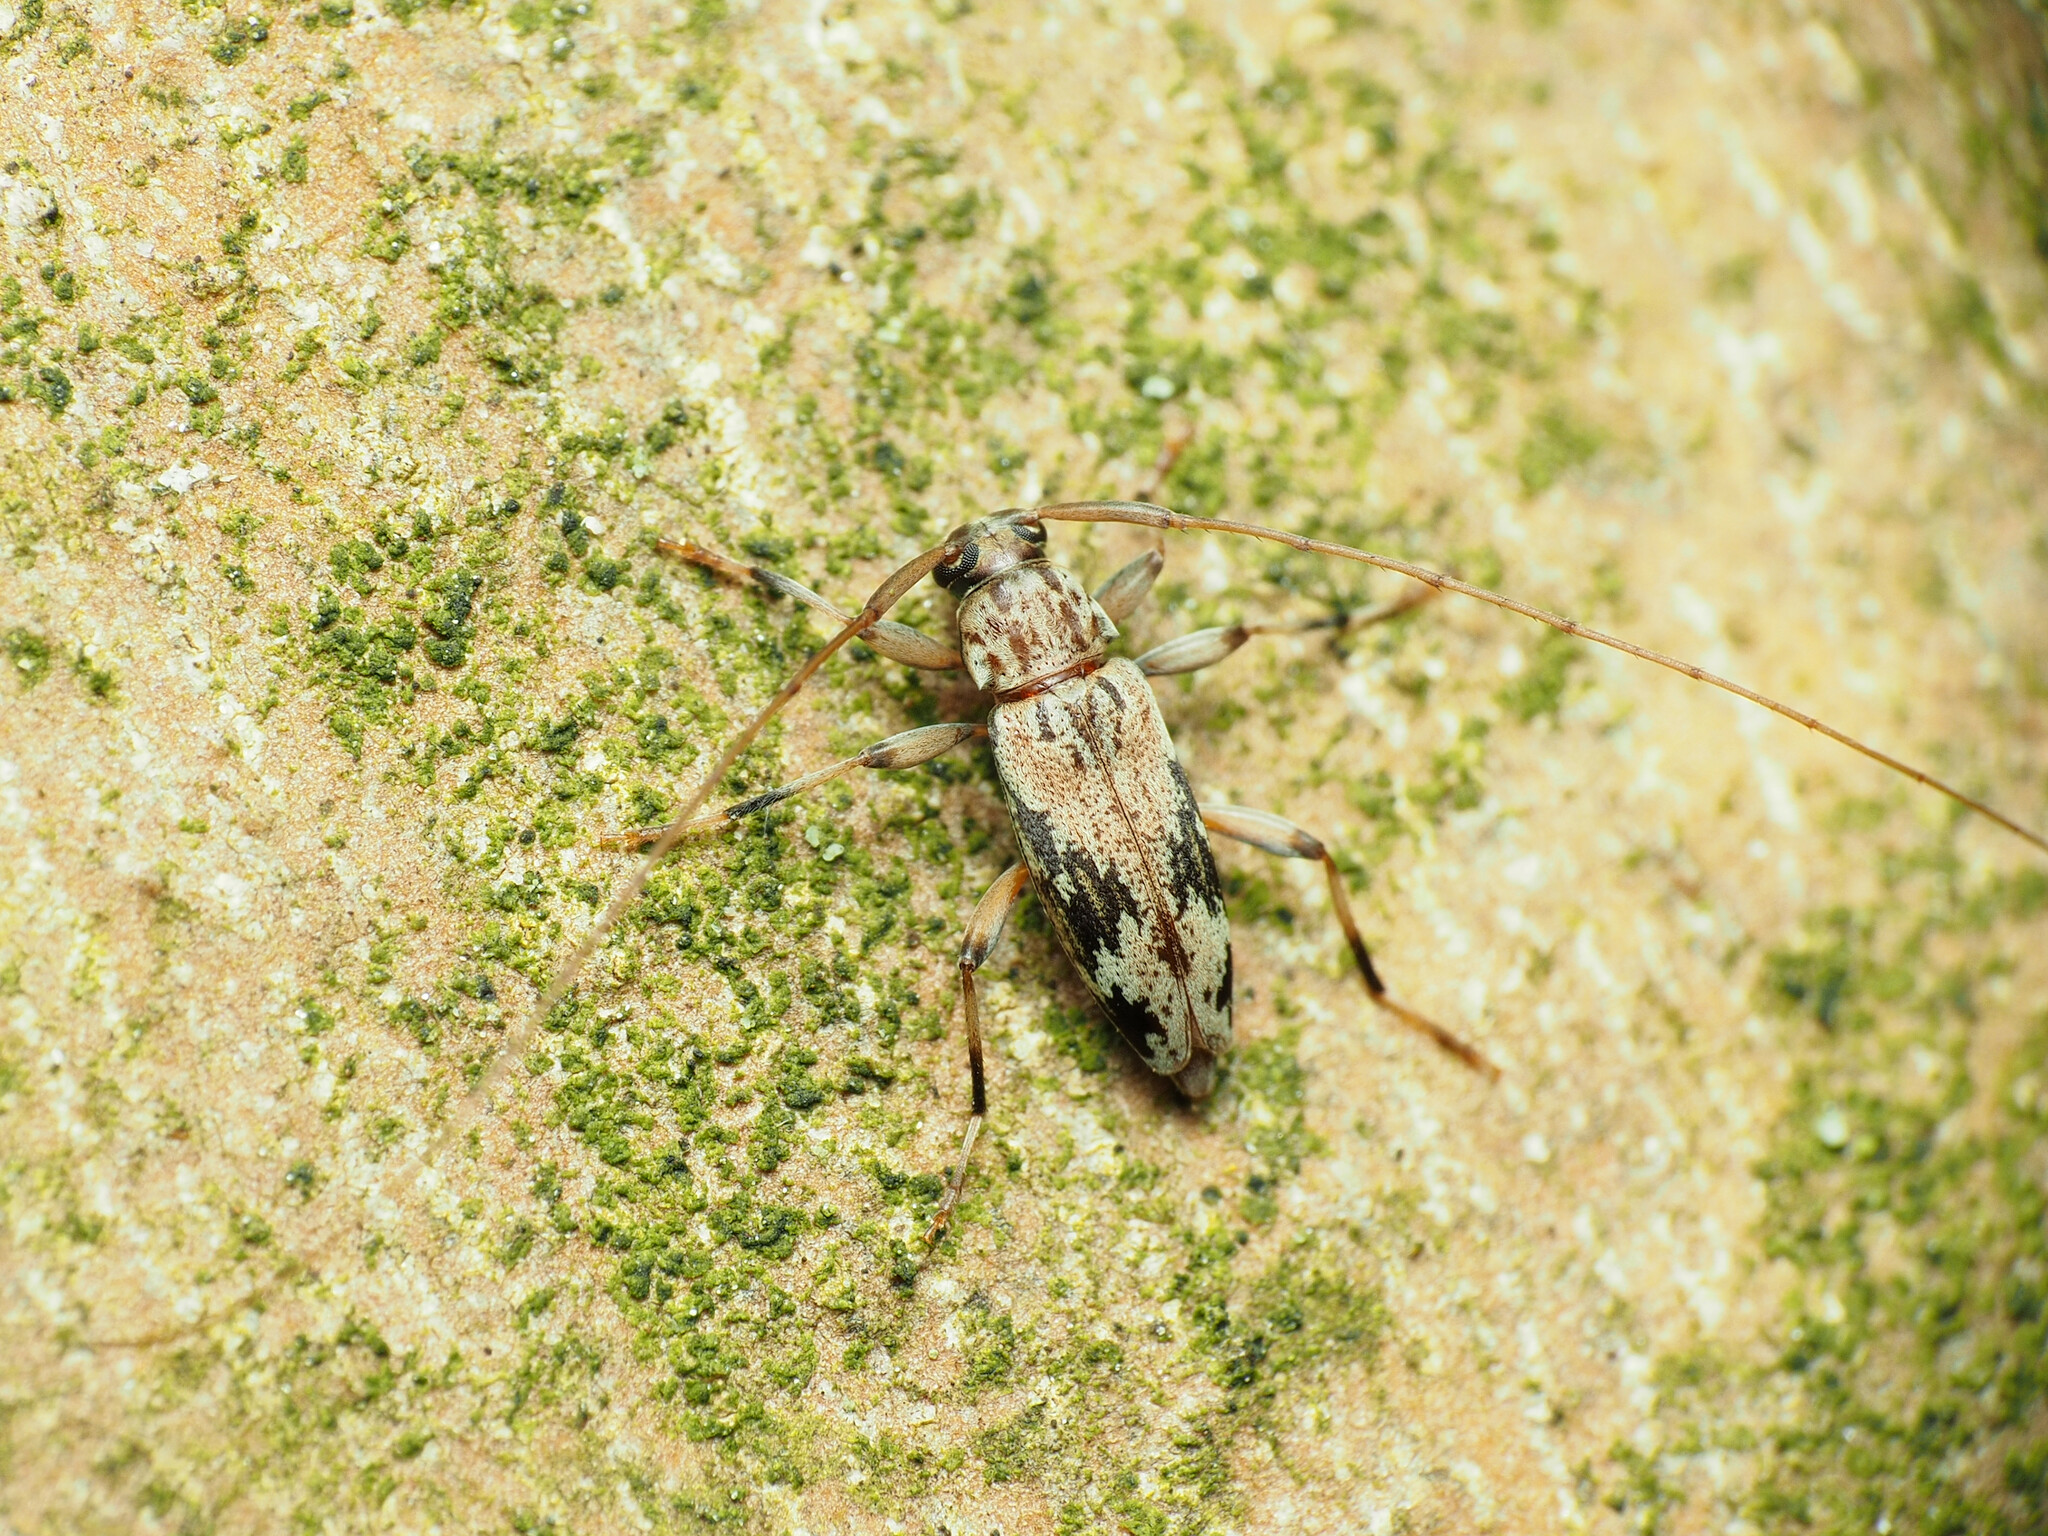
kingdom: Animalia
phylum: Arthropoda
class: Insecta
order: Coleoptera
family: Cerambycidae
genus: Lepturges
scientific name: Lepturges angulatus
